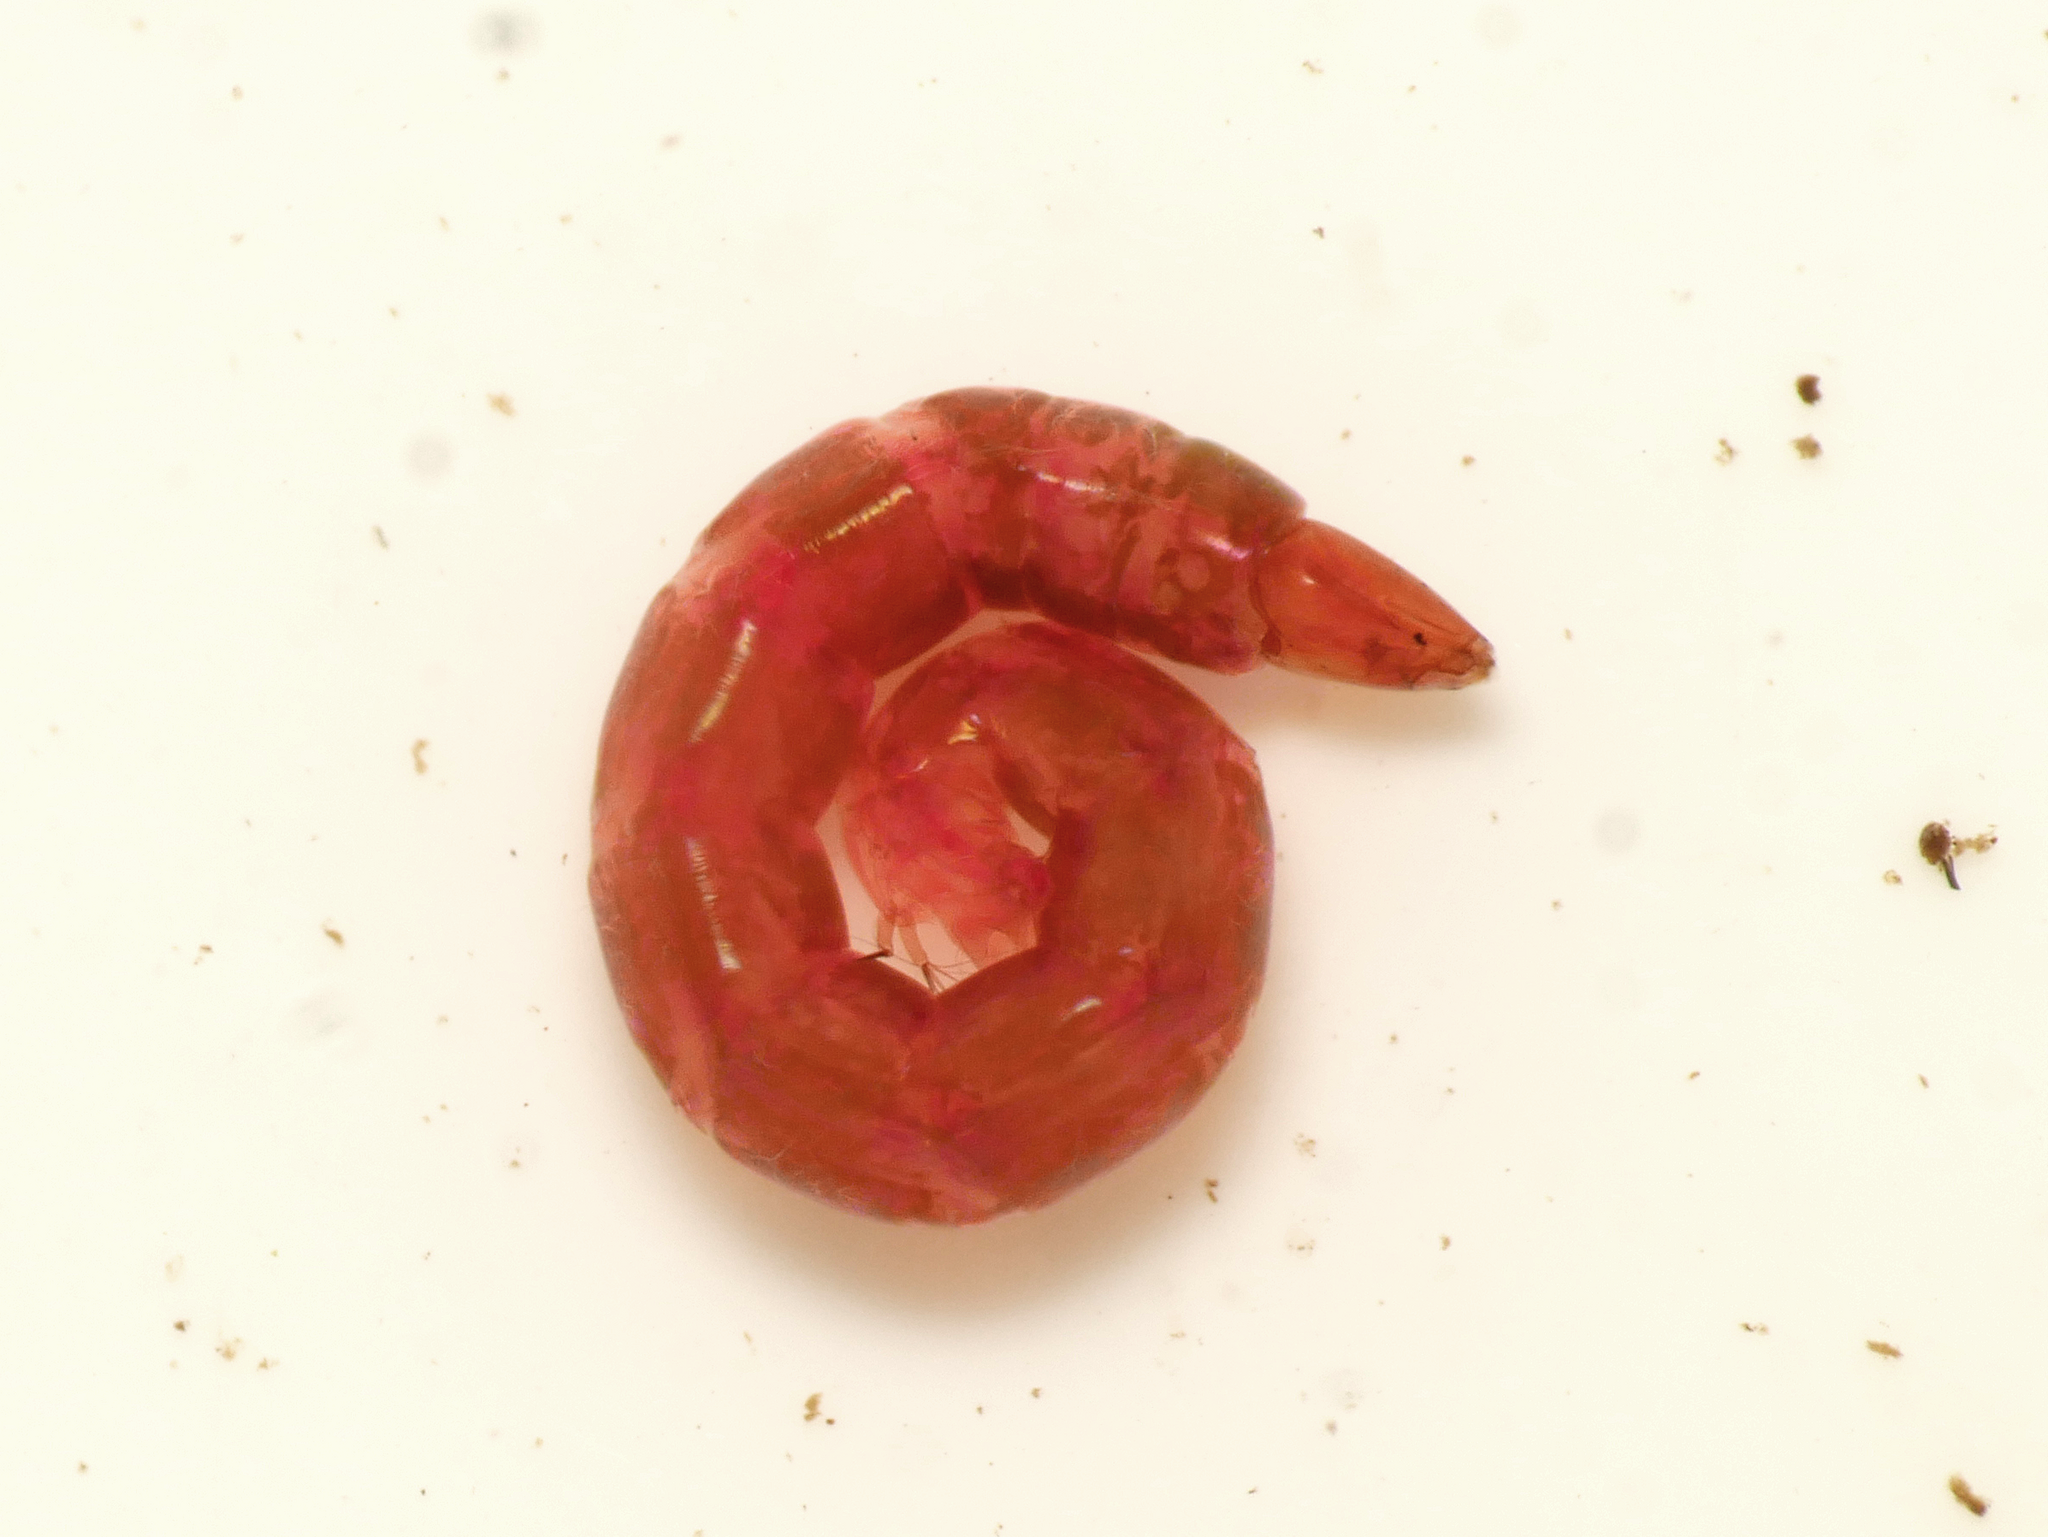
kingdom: Animalia
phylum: Arthropoda
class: Insecta
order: Diptera
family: Chironomidae
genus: Clinotanypus
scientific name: Clinotanypus nervosus
